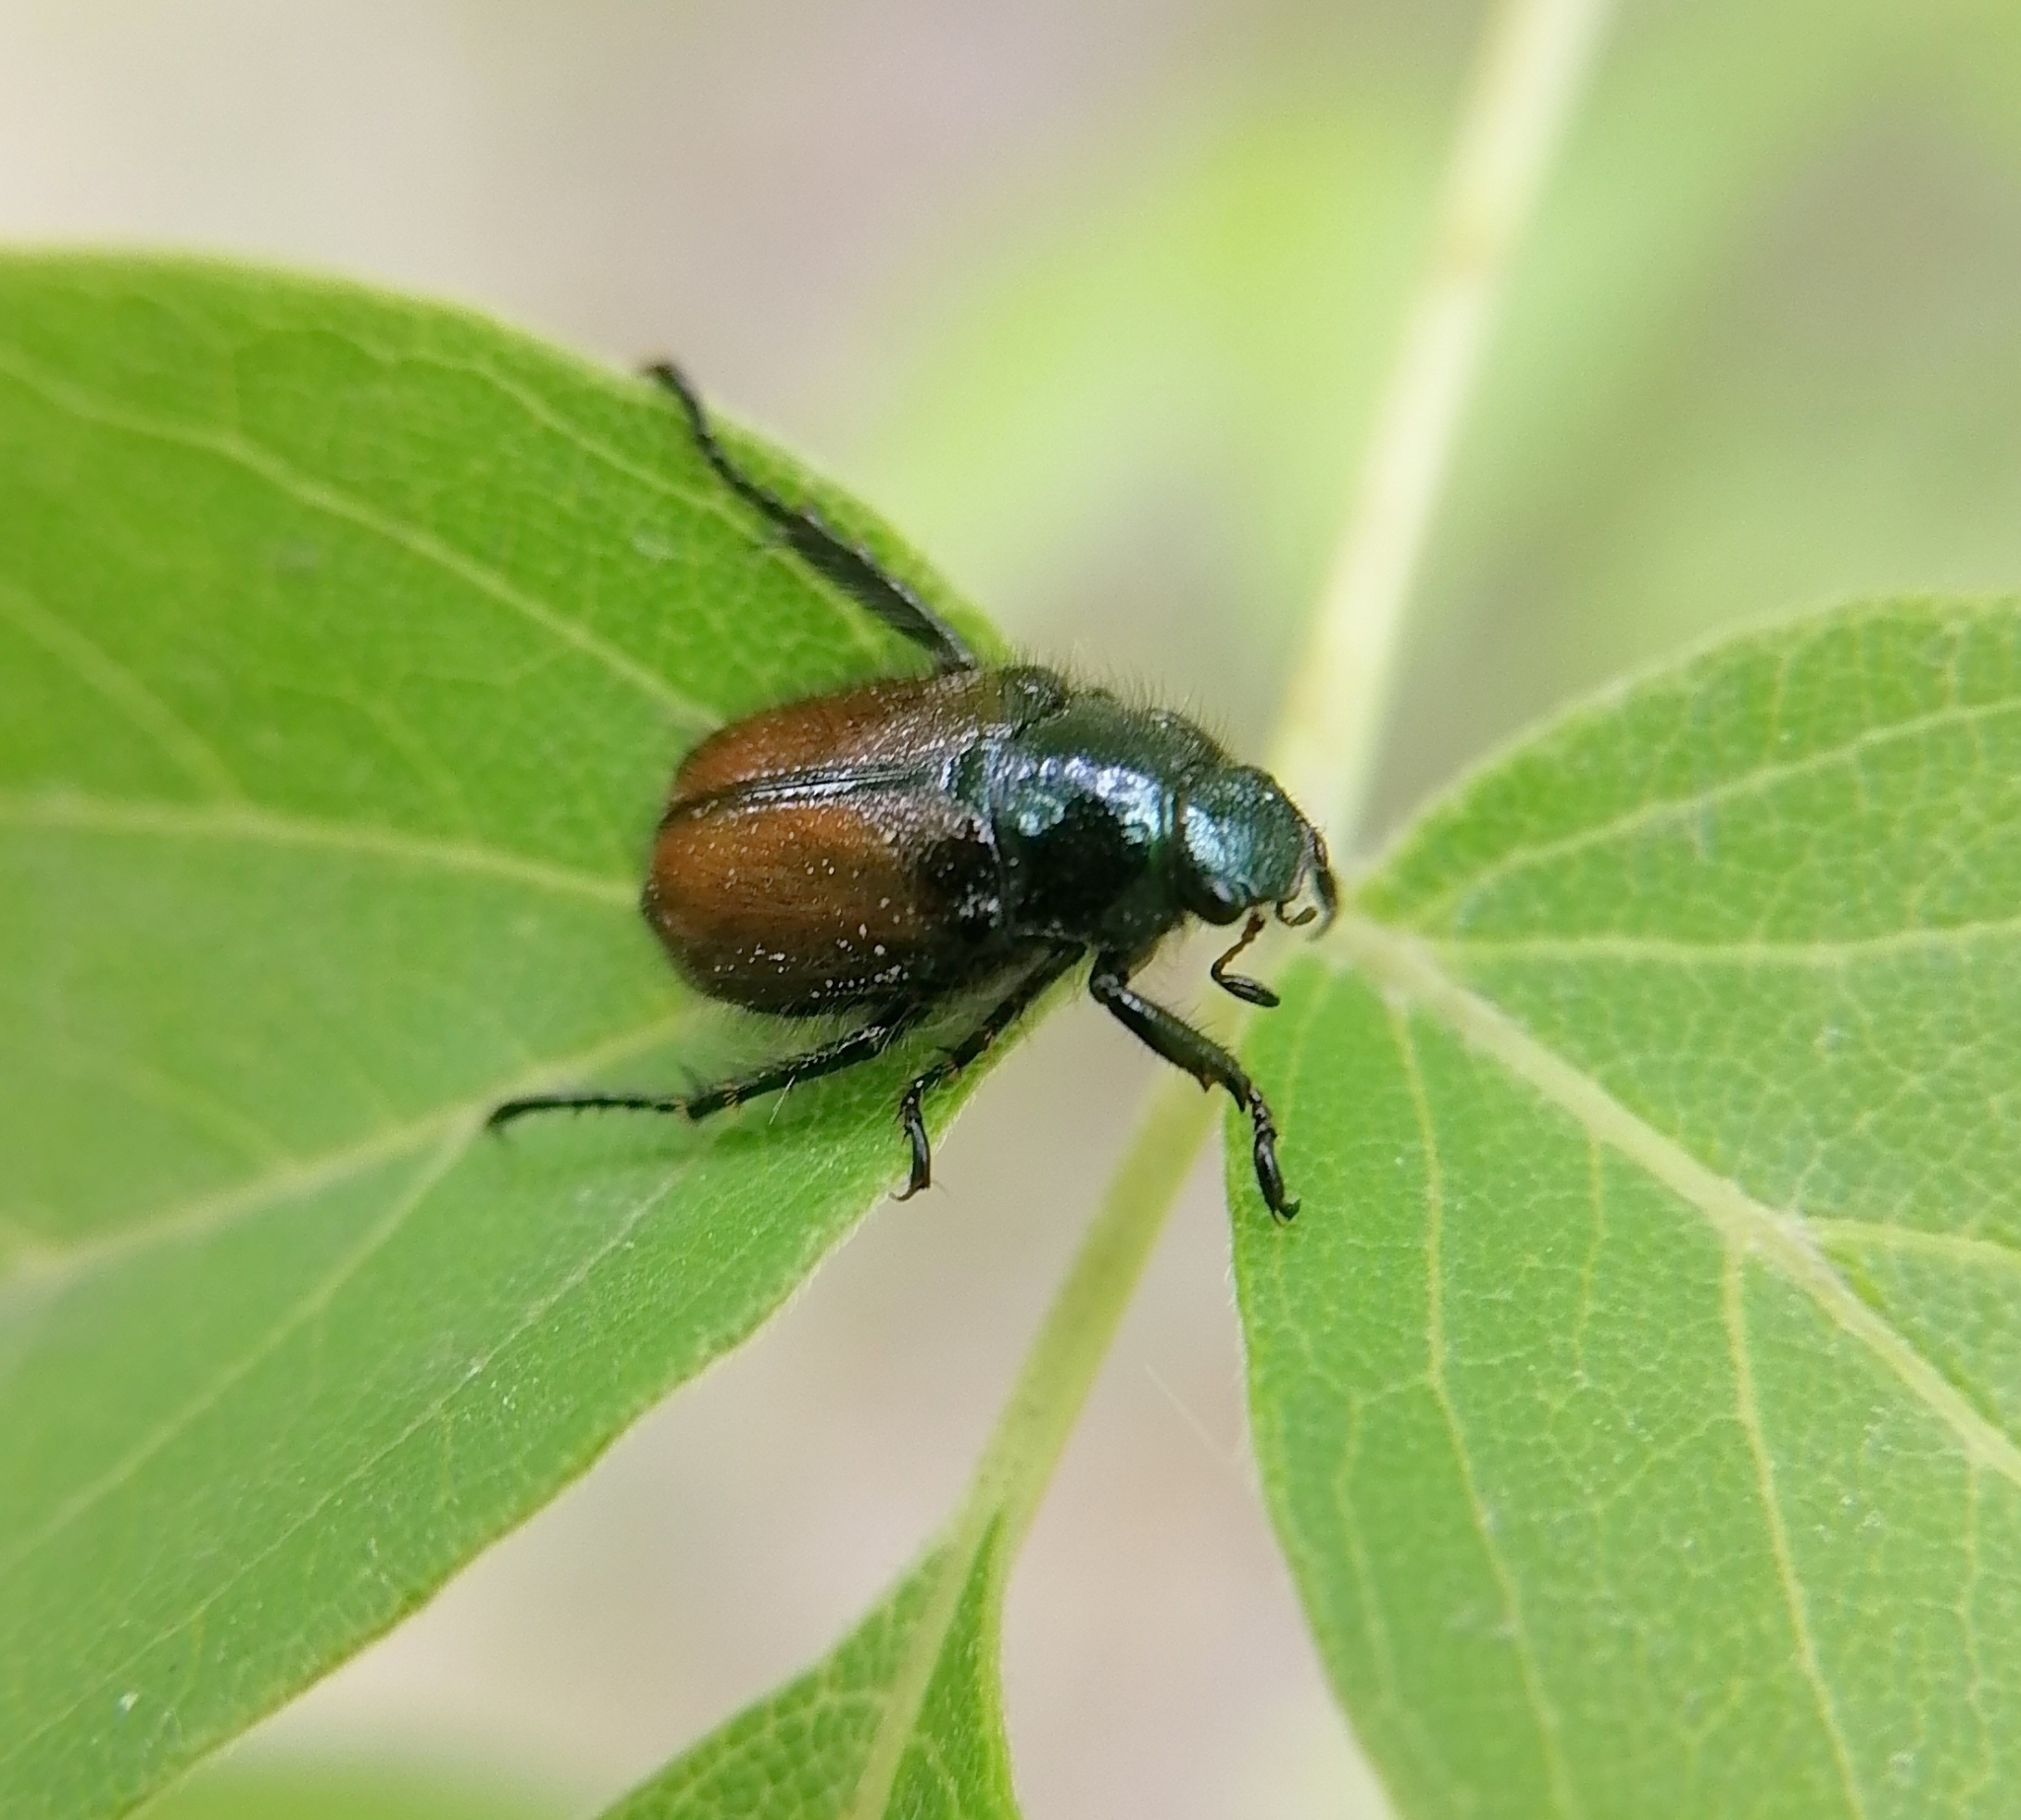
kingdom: Animalia
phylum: Arthropoda
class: Insecta
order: Coleoptera
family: Scarabaeidae
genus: Phyllopertha
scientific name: Phyllopertha horticola
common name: Garden chafer
